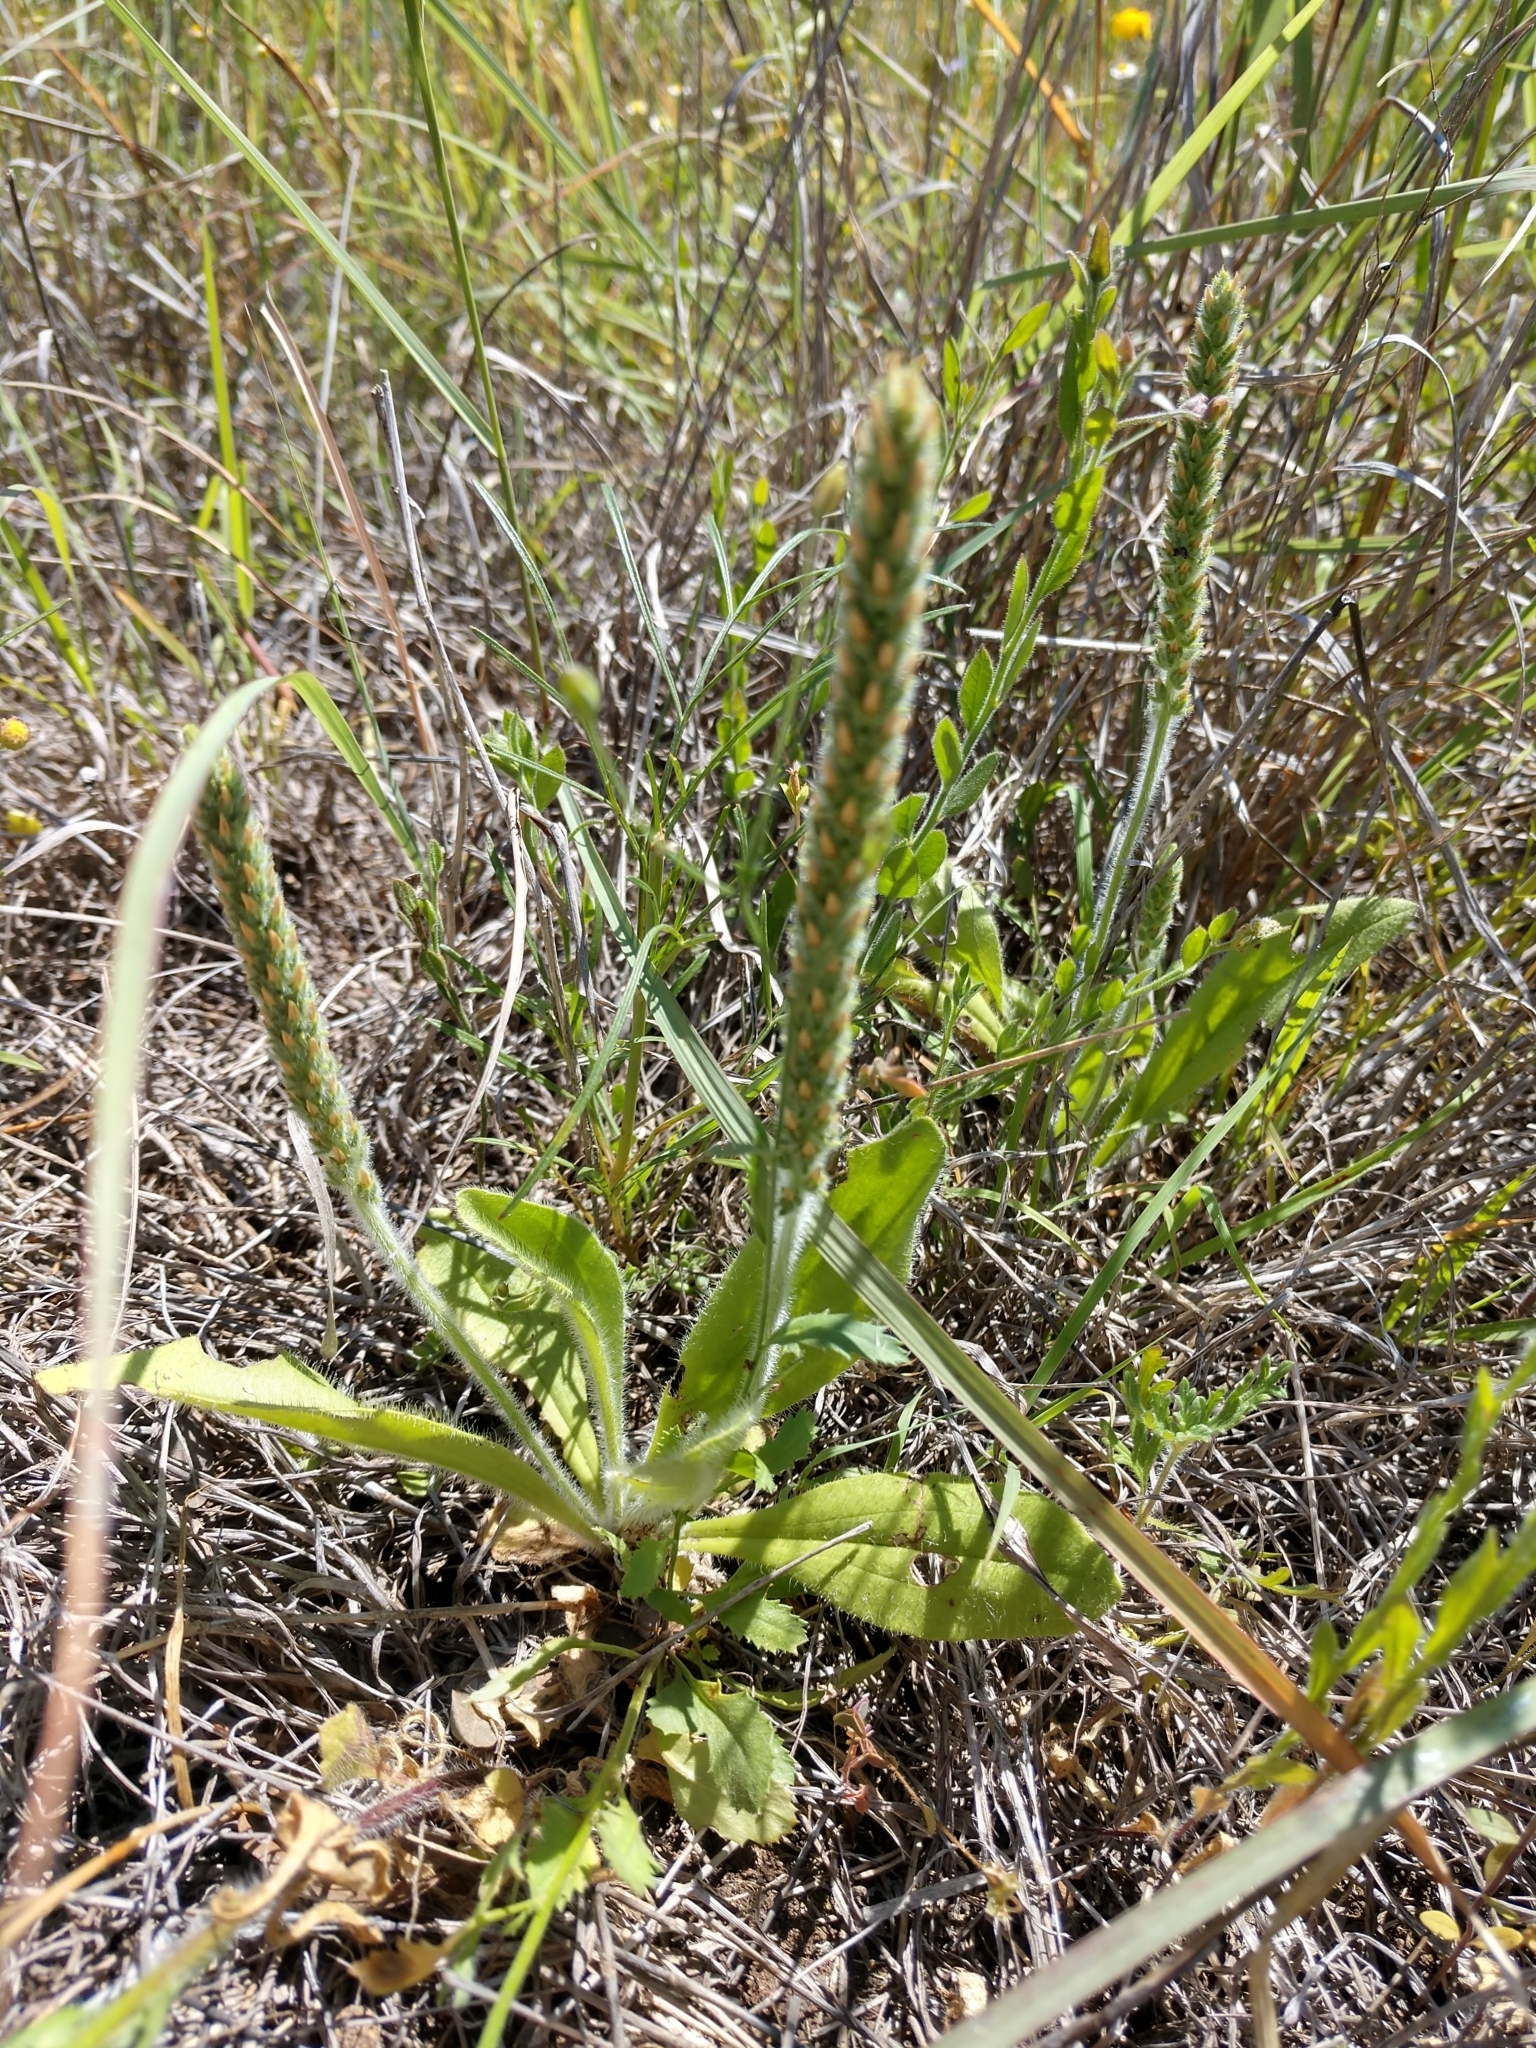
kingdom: Plantae
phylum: Tracheophyta
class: Magnoliopsida
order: Lamiales
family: Plantaginaceae
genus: Plantago
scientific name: Plantago rhodosperma
